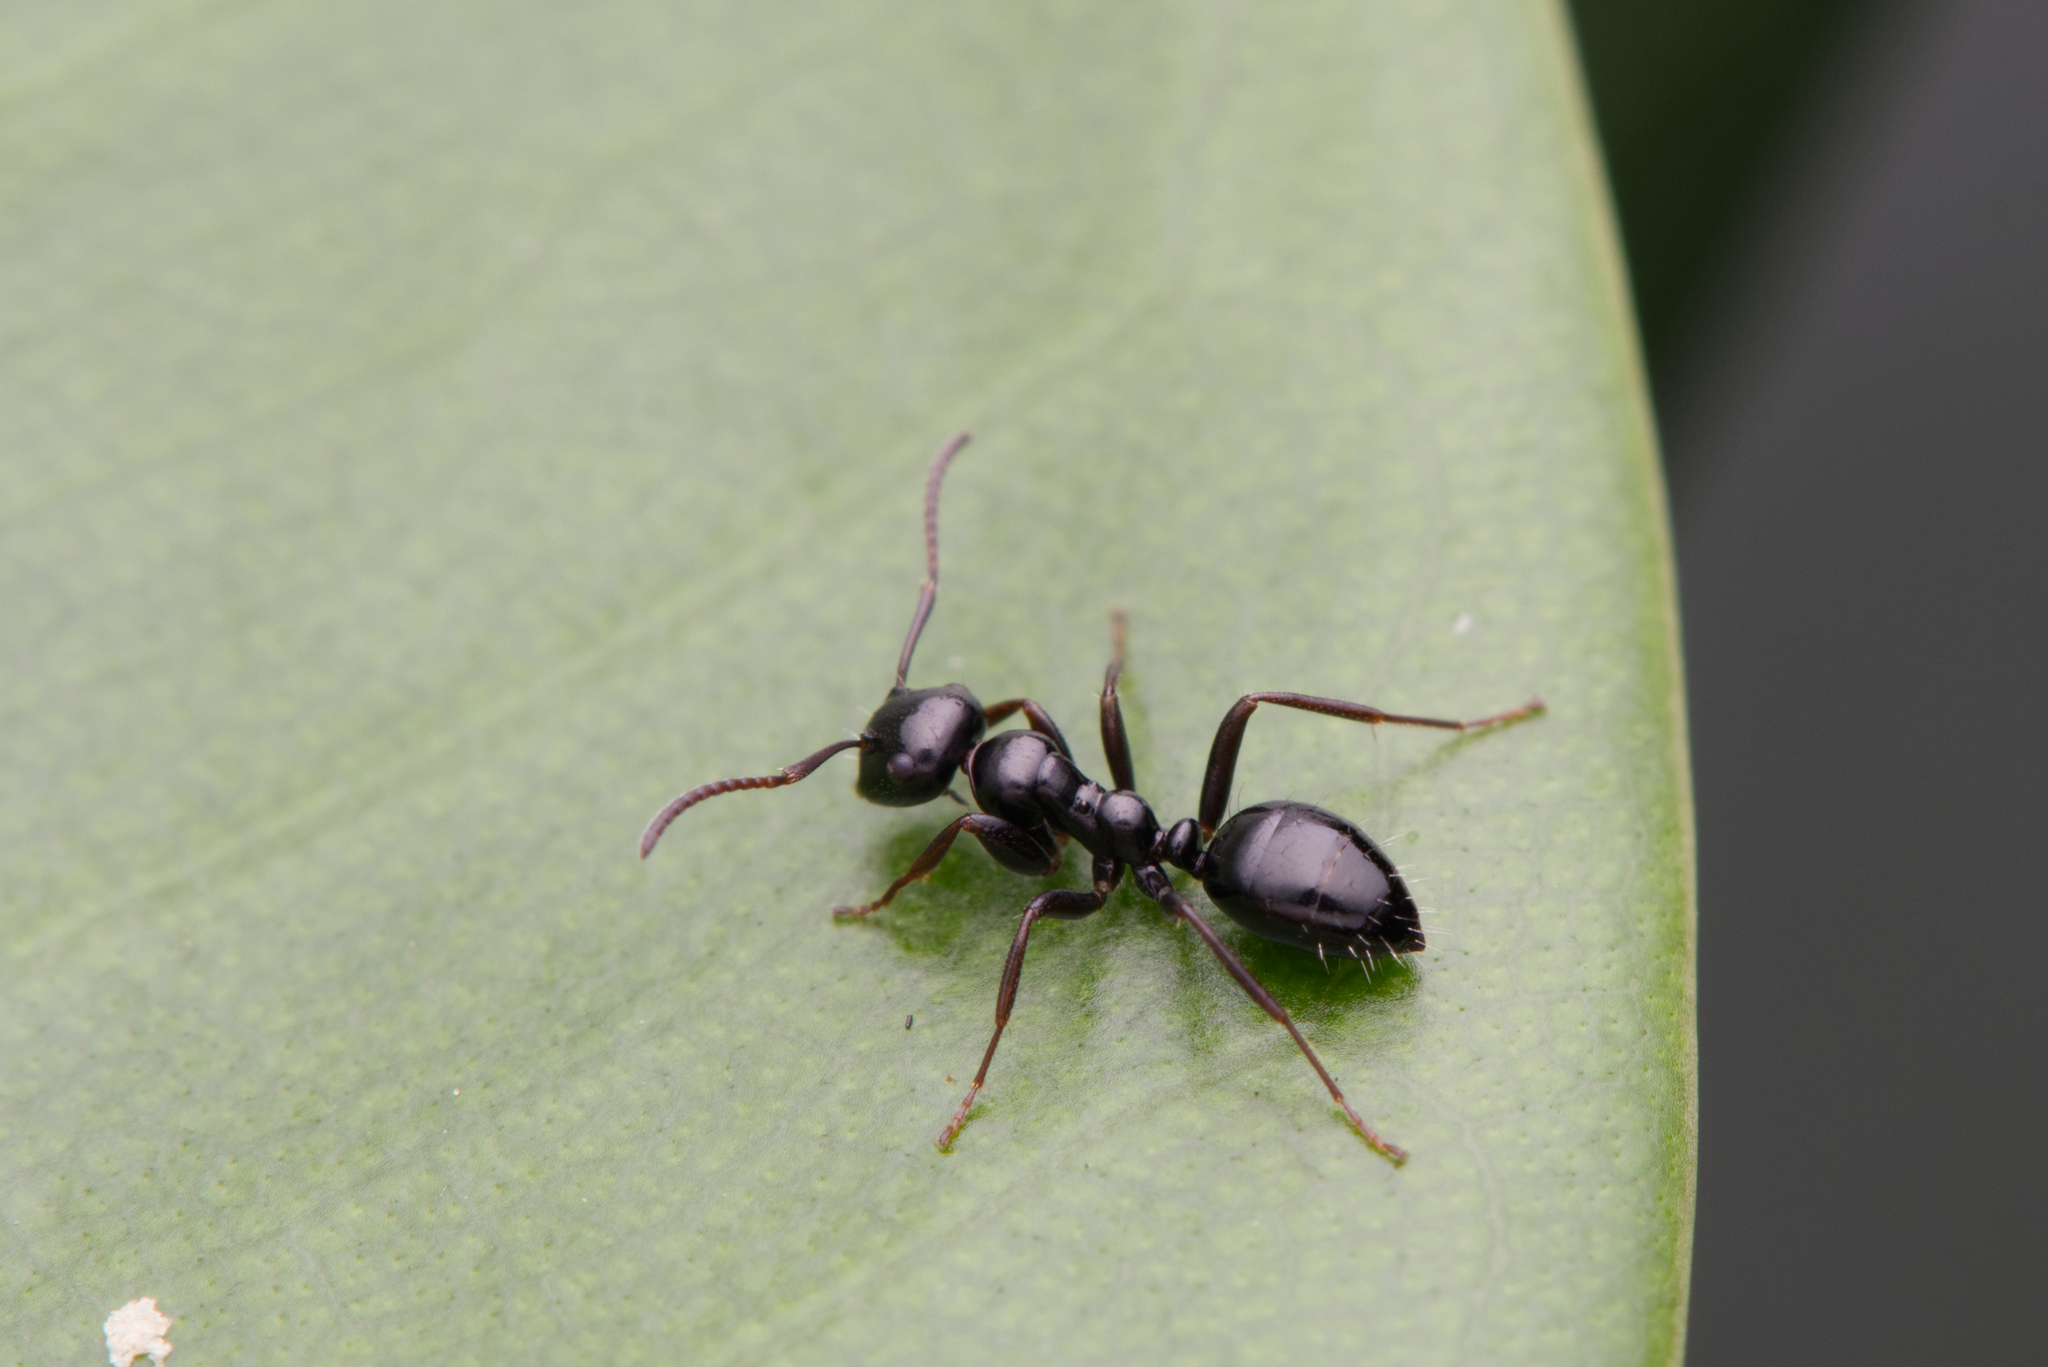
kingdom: Animalia
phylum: Arthropoda
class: Insecta
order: Hymenoptera
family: Formicidae
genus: Colobopsis
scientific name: Colobopsis gasseri
